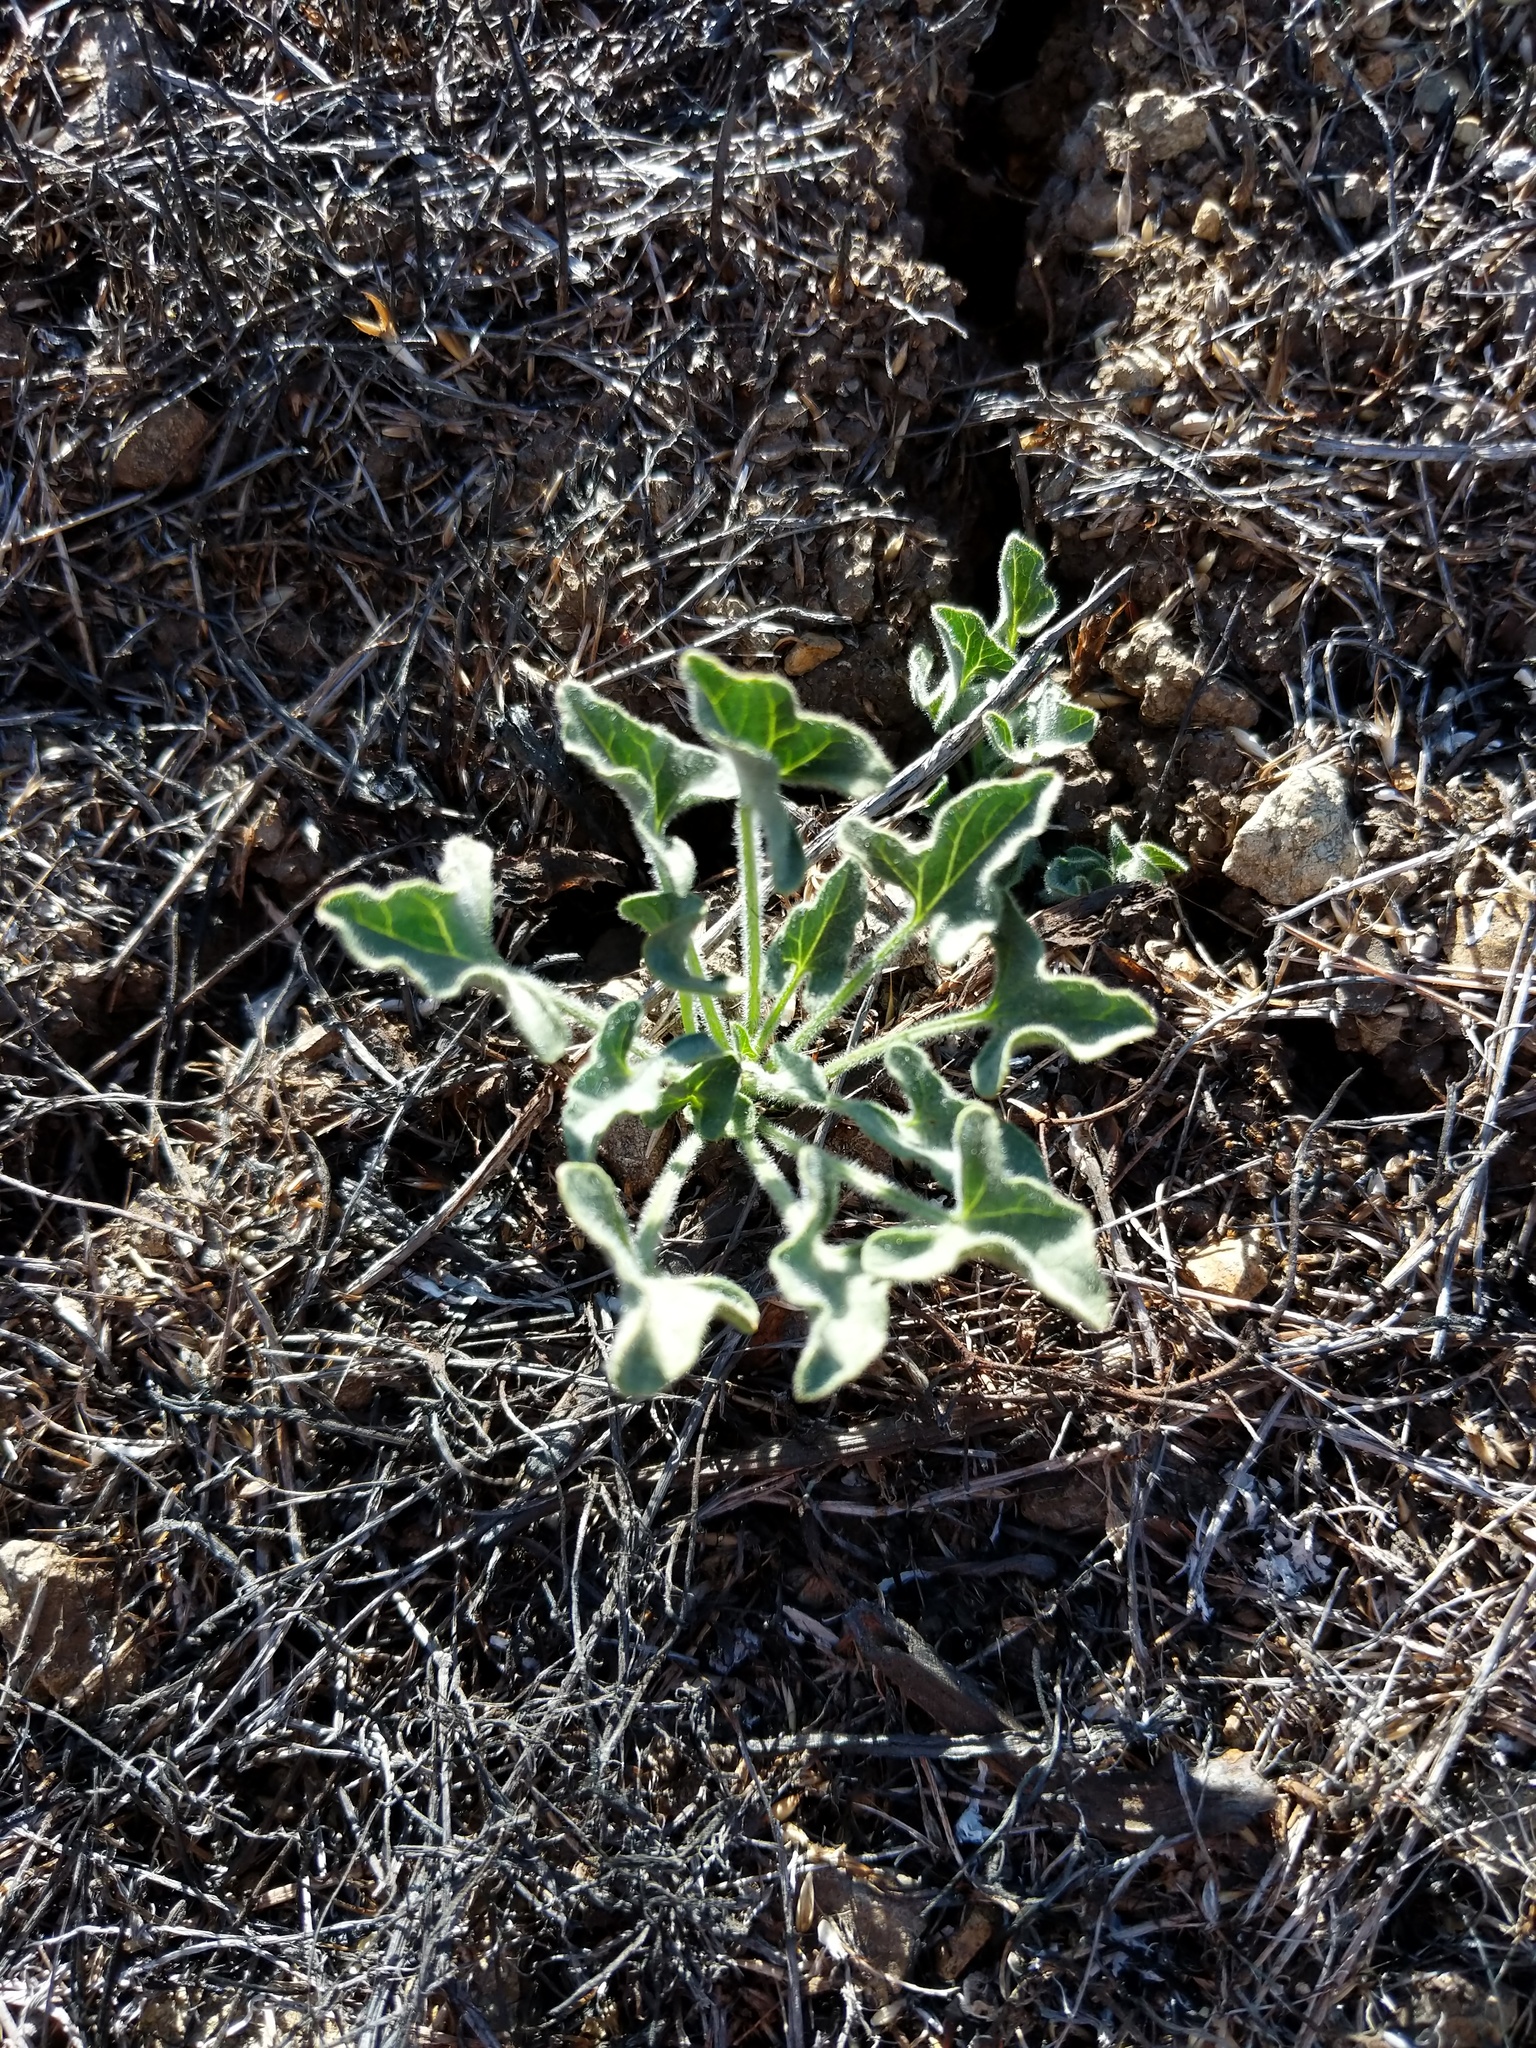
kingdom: Plantae
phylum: Tracheophyta
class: Magnoliopsida
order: Solanales
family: Convolvulaceae
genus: Calystegia
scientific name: Calystegia collina
